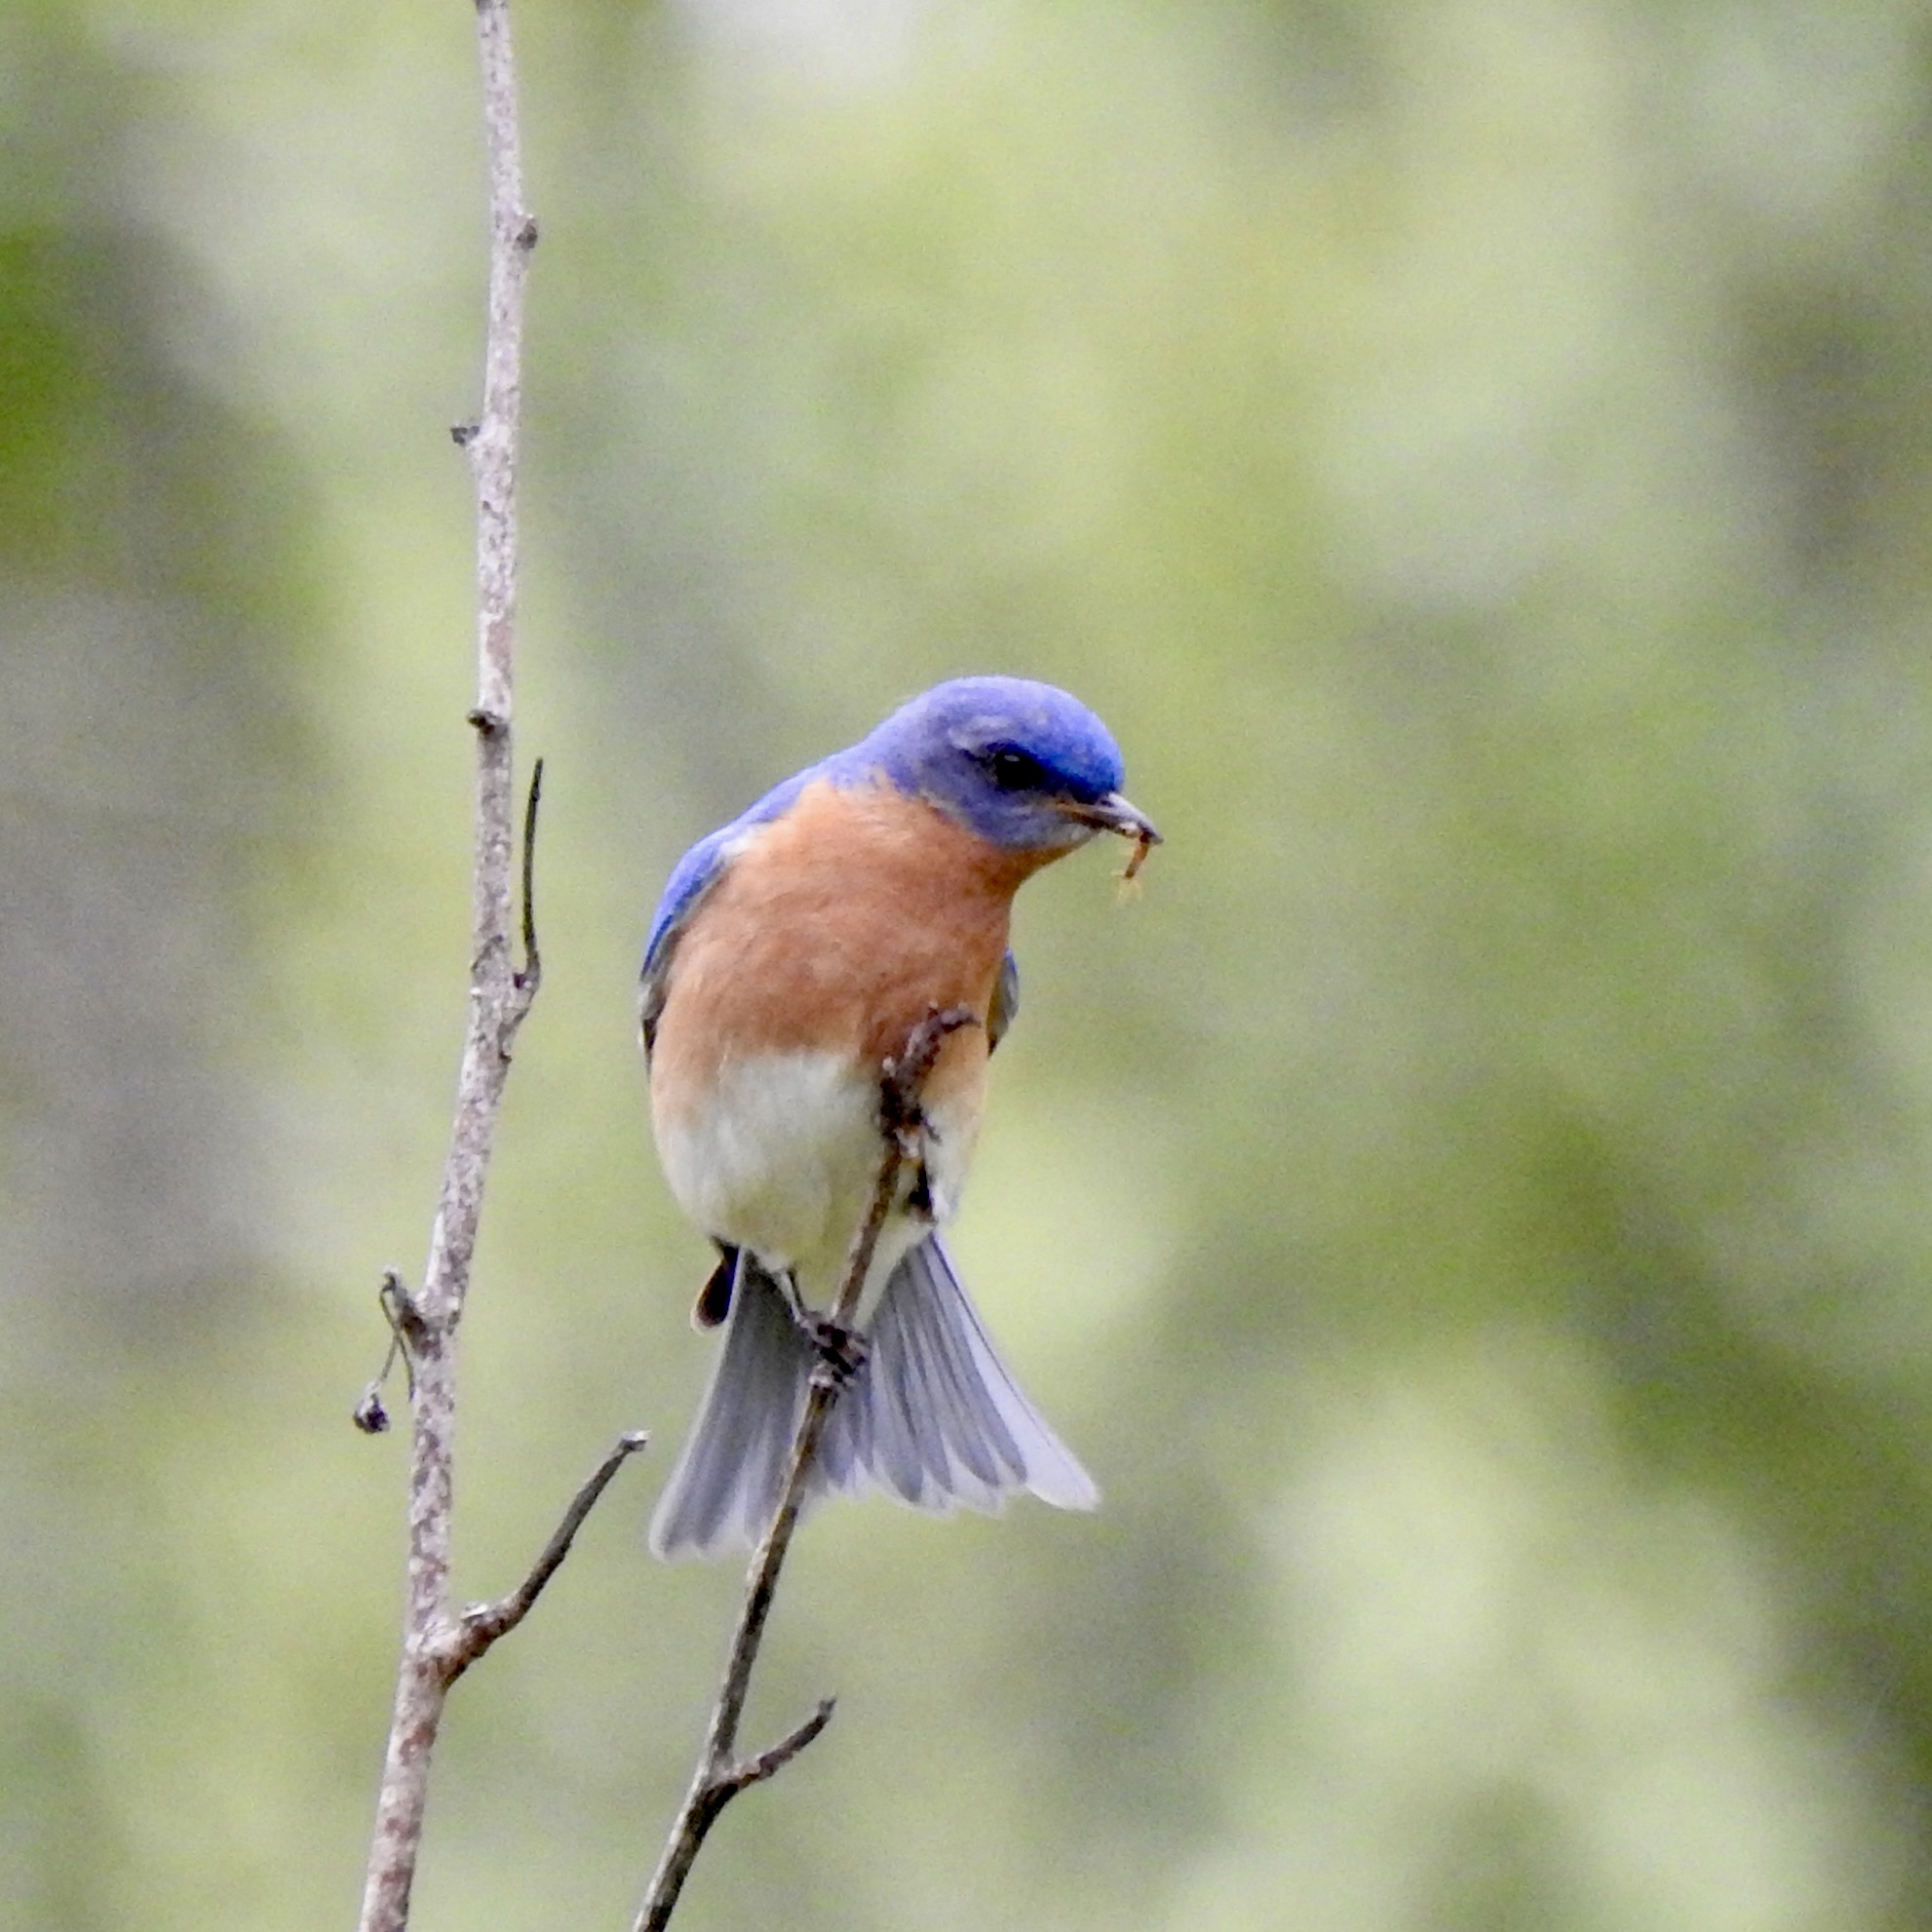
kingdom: Animalia
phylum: Chordata
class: Aves
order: Passeriformes
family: Turdidae
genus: Sialia
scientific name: Sialia sialis
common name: Eastern bluebird
